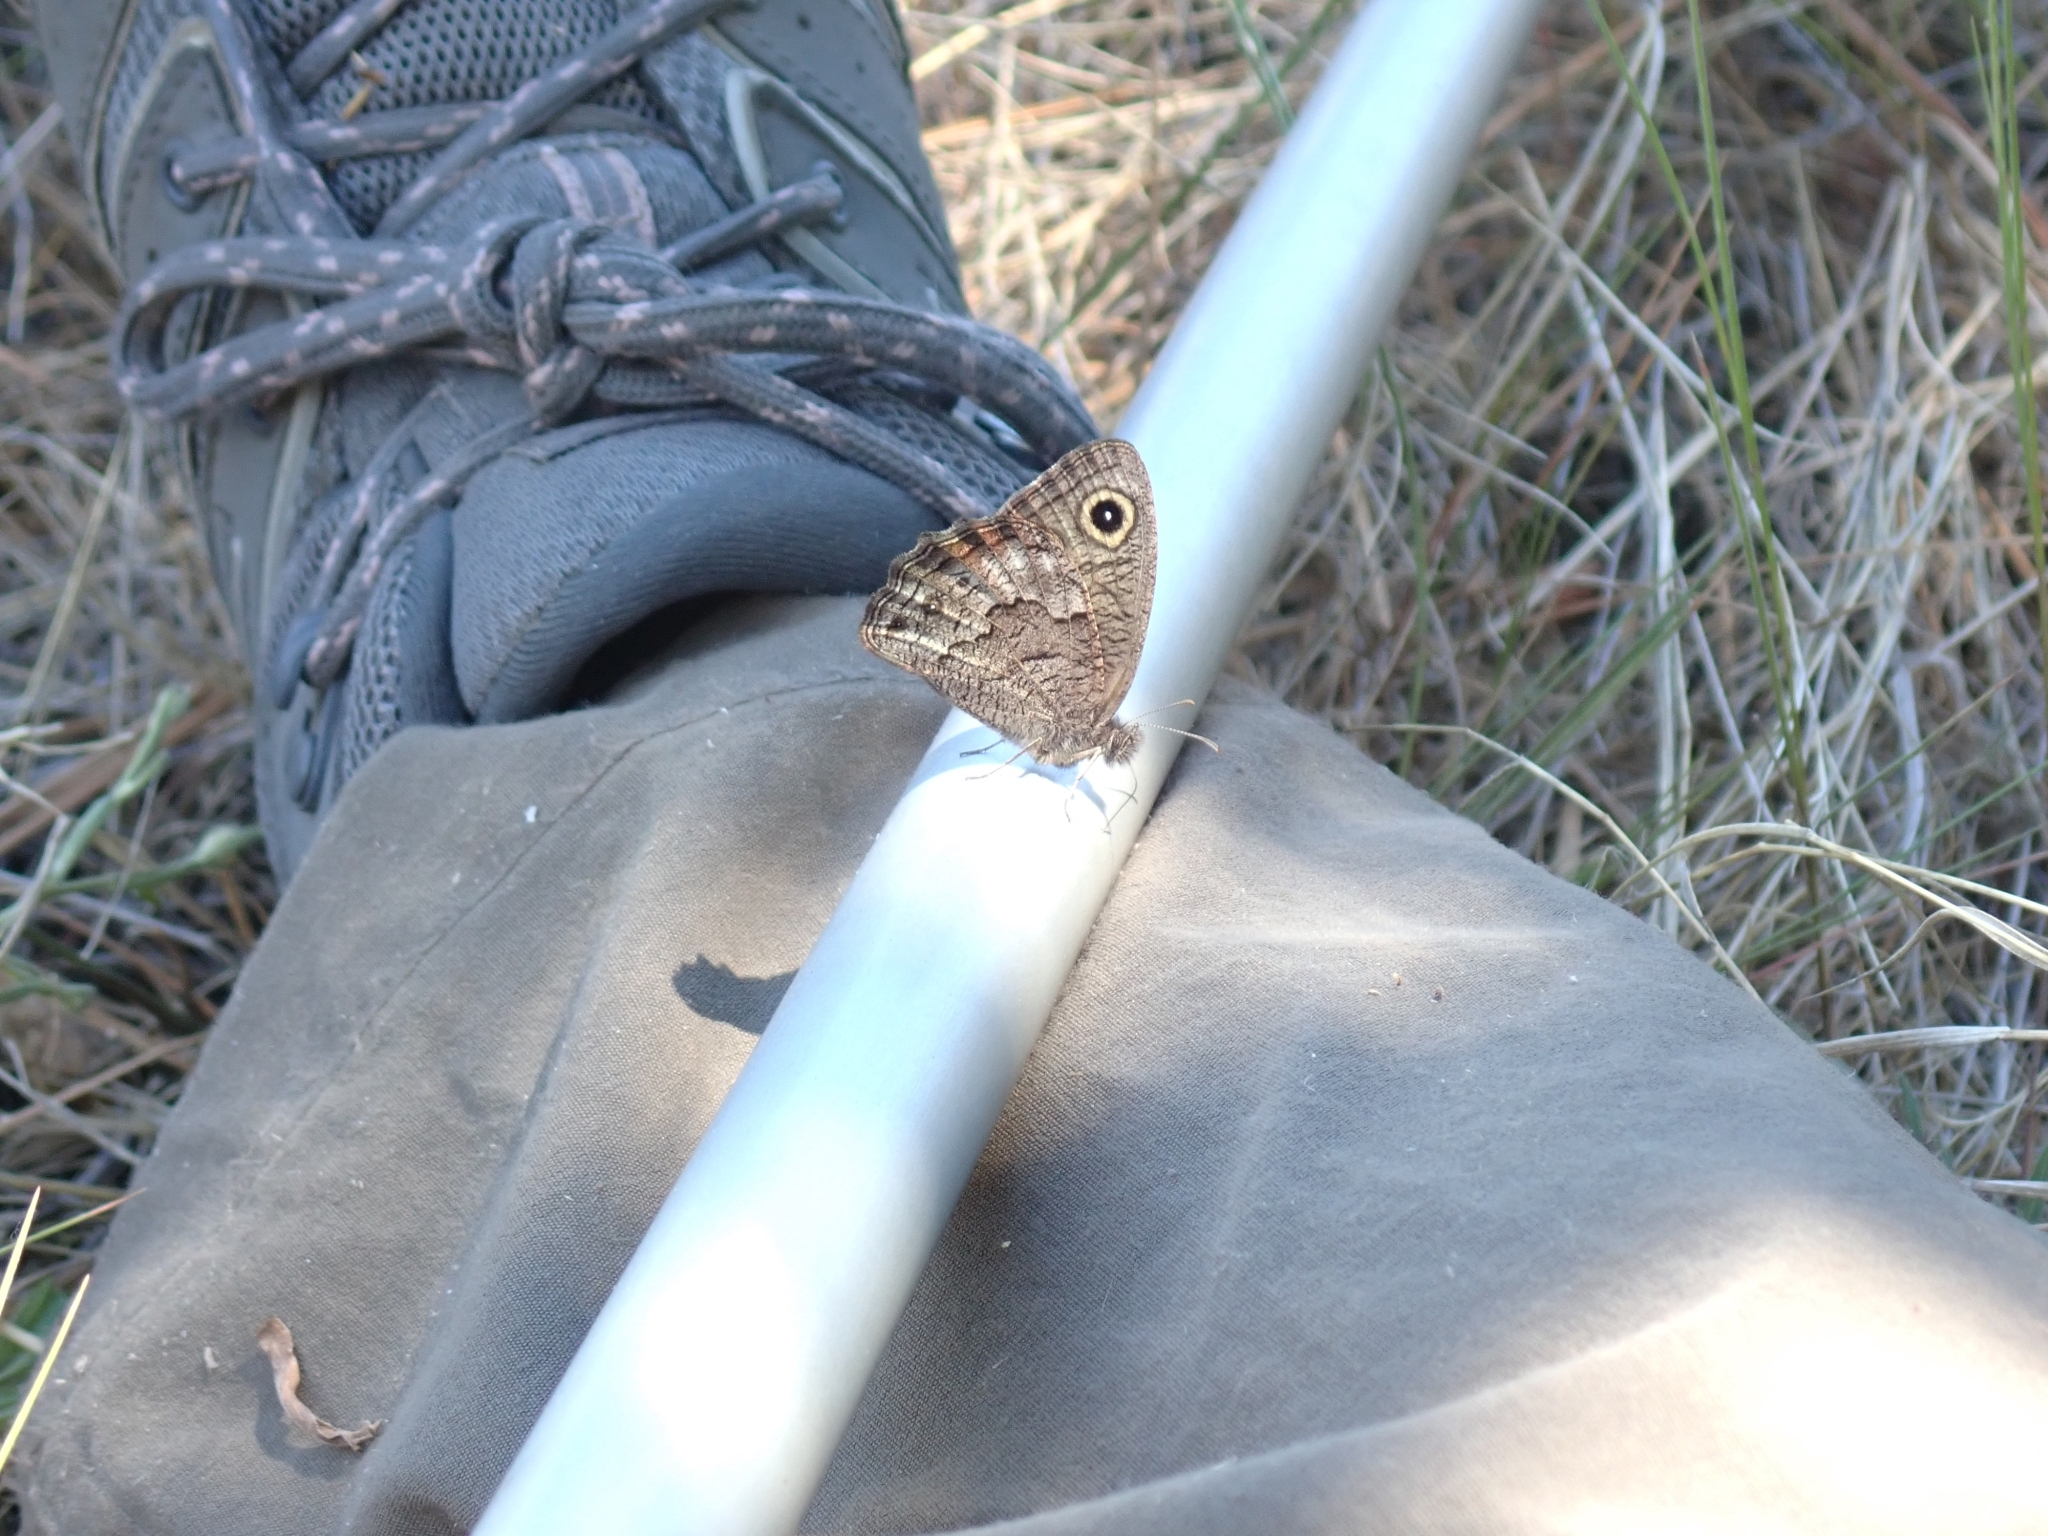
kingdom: Animalia
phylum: Arthropoda
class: Insecta
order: Lepidoptera
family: Nymphalidae
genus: Cercyonis
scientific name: Cercyonis sthenele
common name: Great basin wood-nymph
